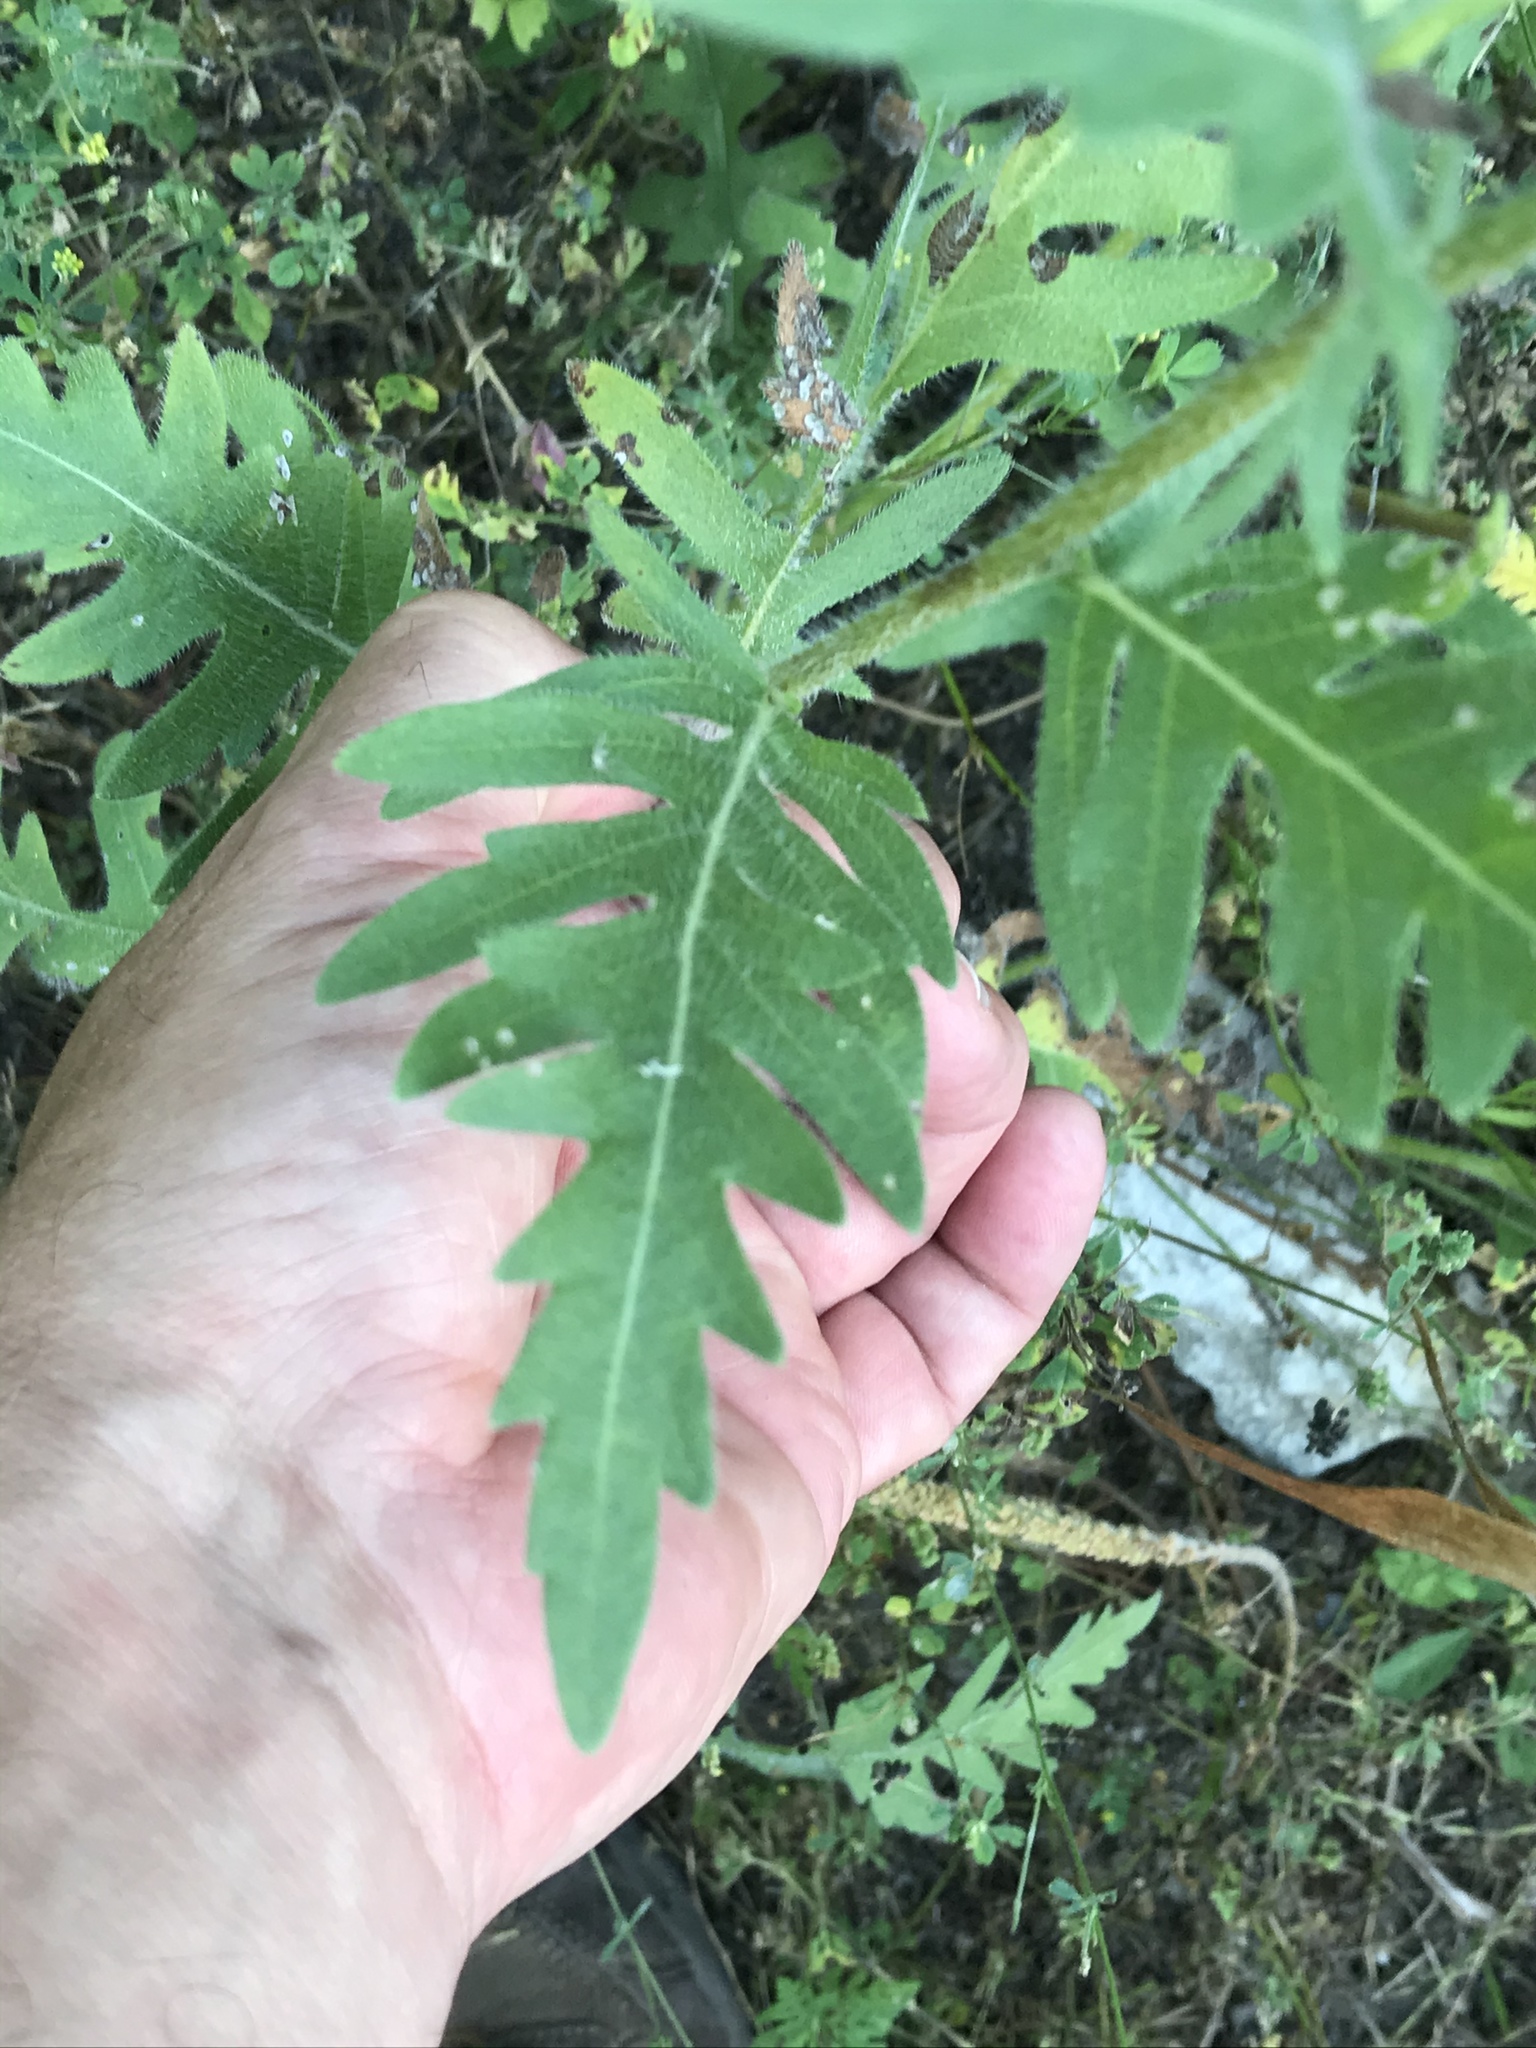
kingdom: Plantae
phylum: Tracheophyta
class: Magnoliopsida
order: Asterales
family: Asteraceae
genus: Engelmannia
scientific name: Engelmannia peristenia
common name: Engelmann's daisy
